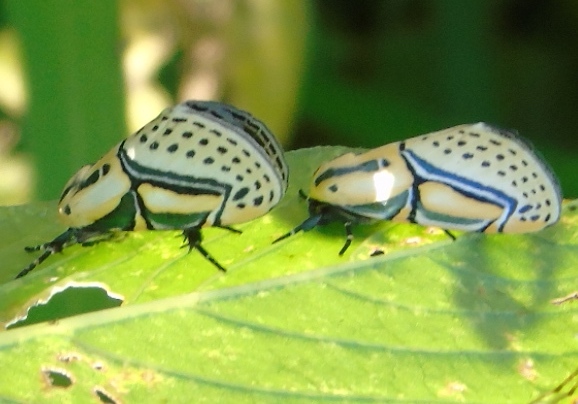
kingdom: Animalia
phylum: Arthropoda
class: Insecta
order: Lepidoptera
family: Erebidae
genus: Diphthera
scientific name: Diphthera festiva
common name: Hieroglyphic moth
